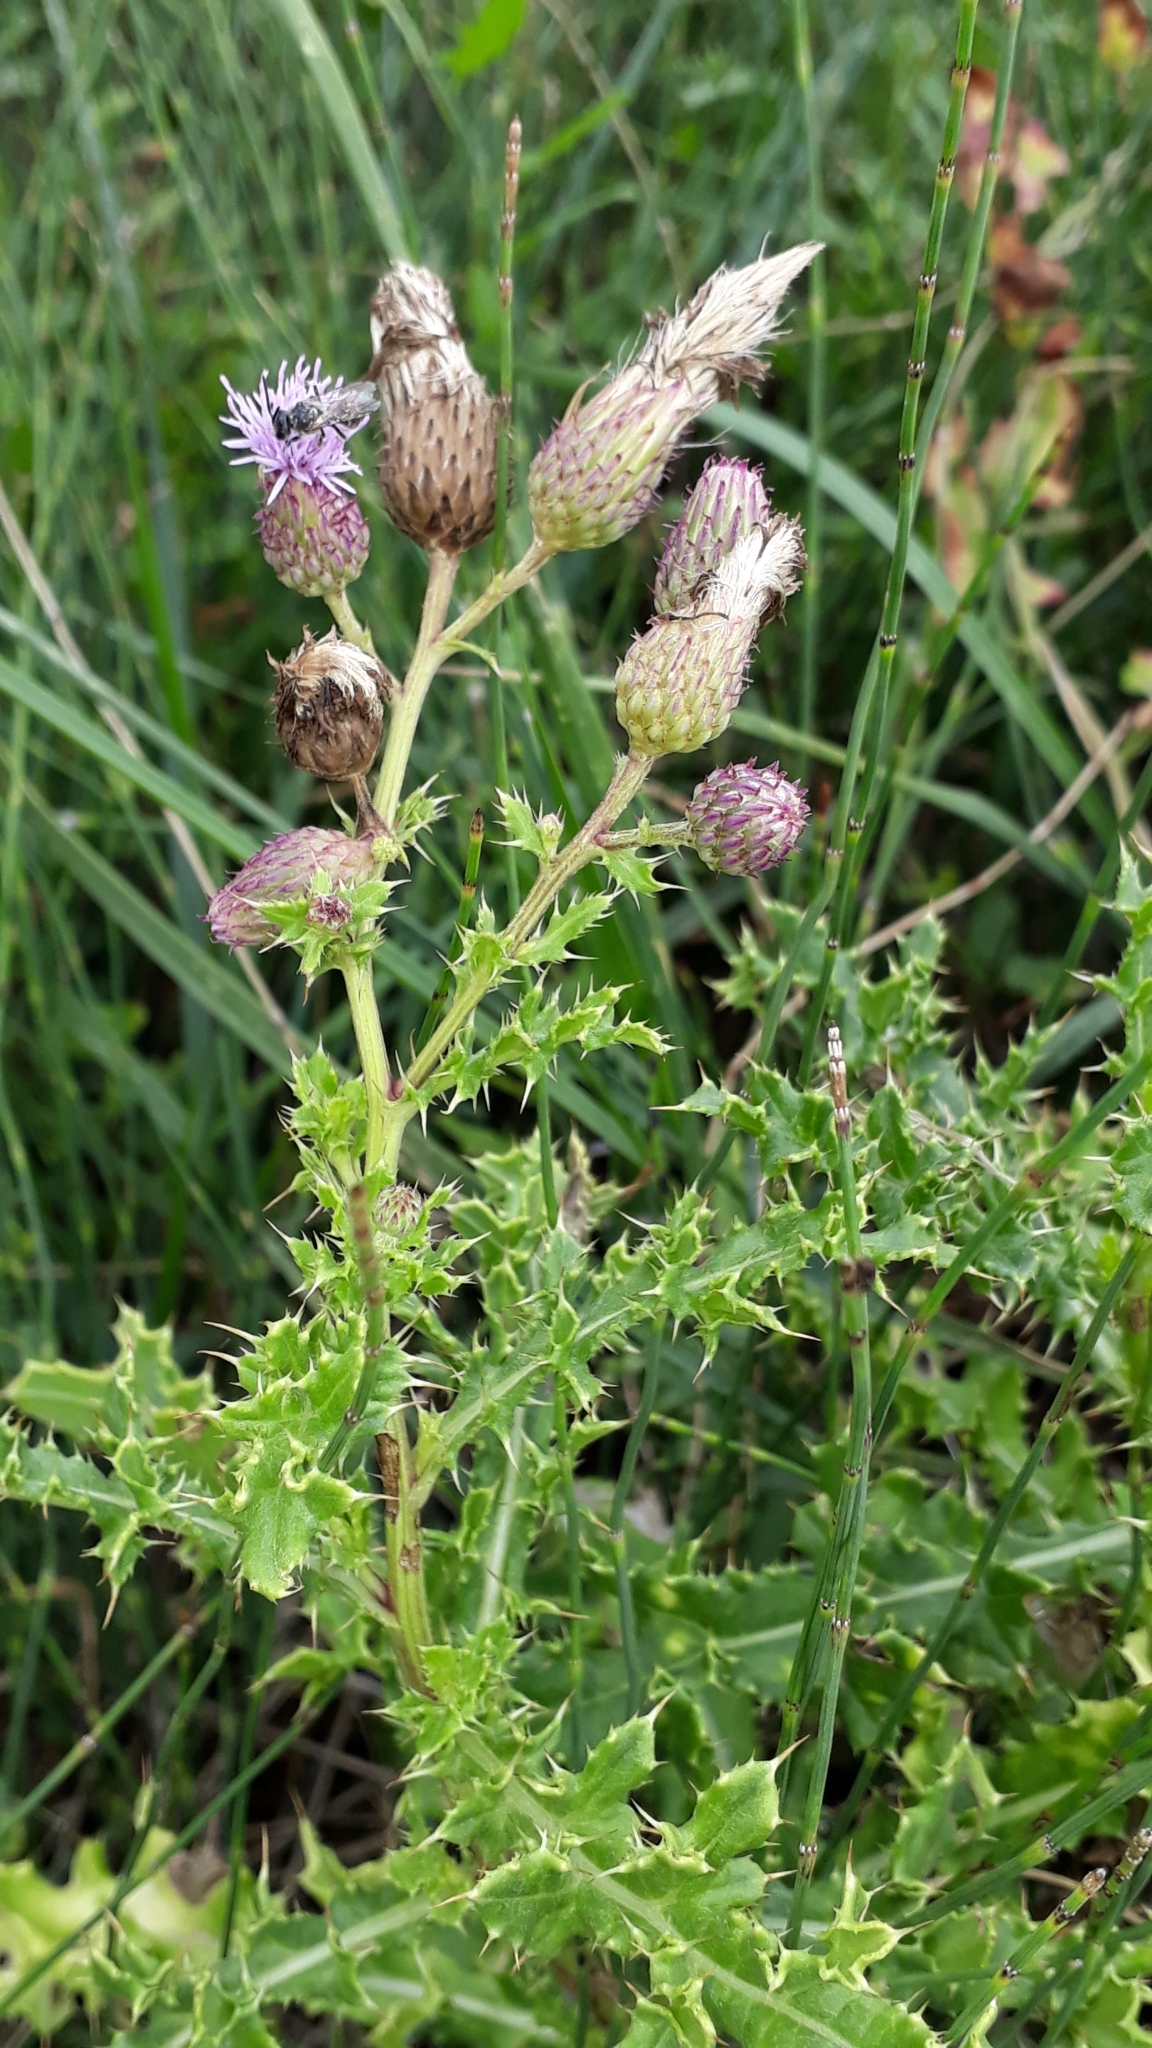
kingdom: Plantae
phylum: Tracheophyta
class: Magnoliopsida
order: Asterales
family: Asteraceae
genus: Cirsium
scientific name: Cirsium arvense
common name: Creeping thistle
